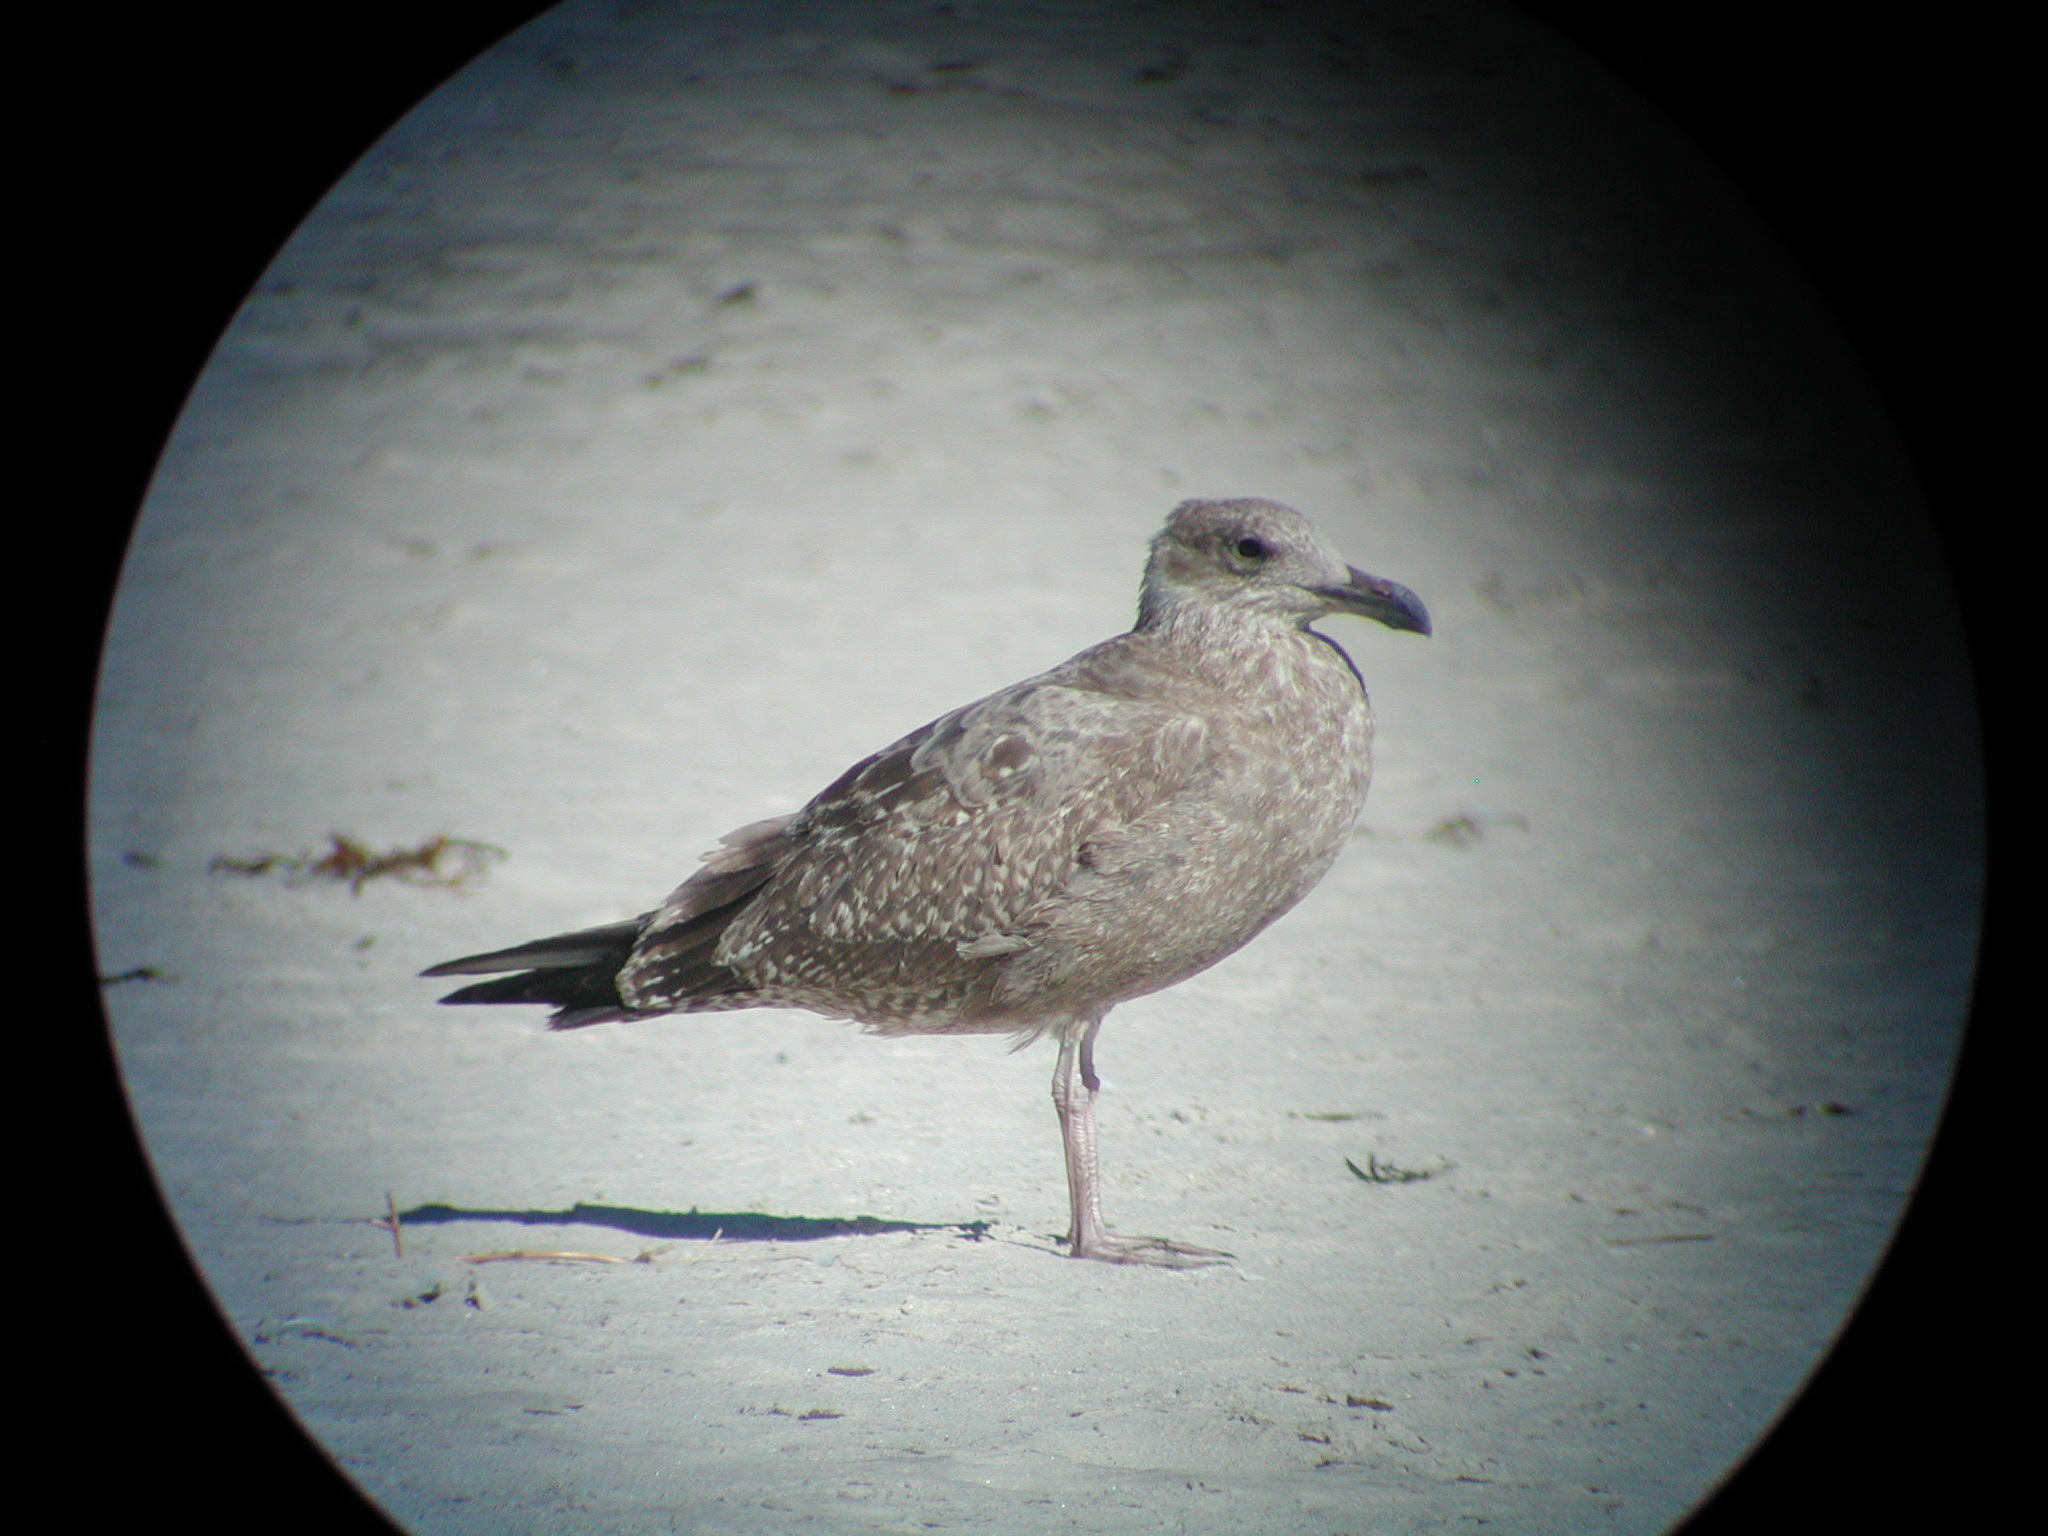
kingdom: Animalia
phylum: Chordata
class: Aves
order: Charadriiformes
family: Laridae
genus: Larus
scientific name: Larus argentatus
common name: Herring gull
